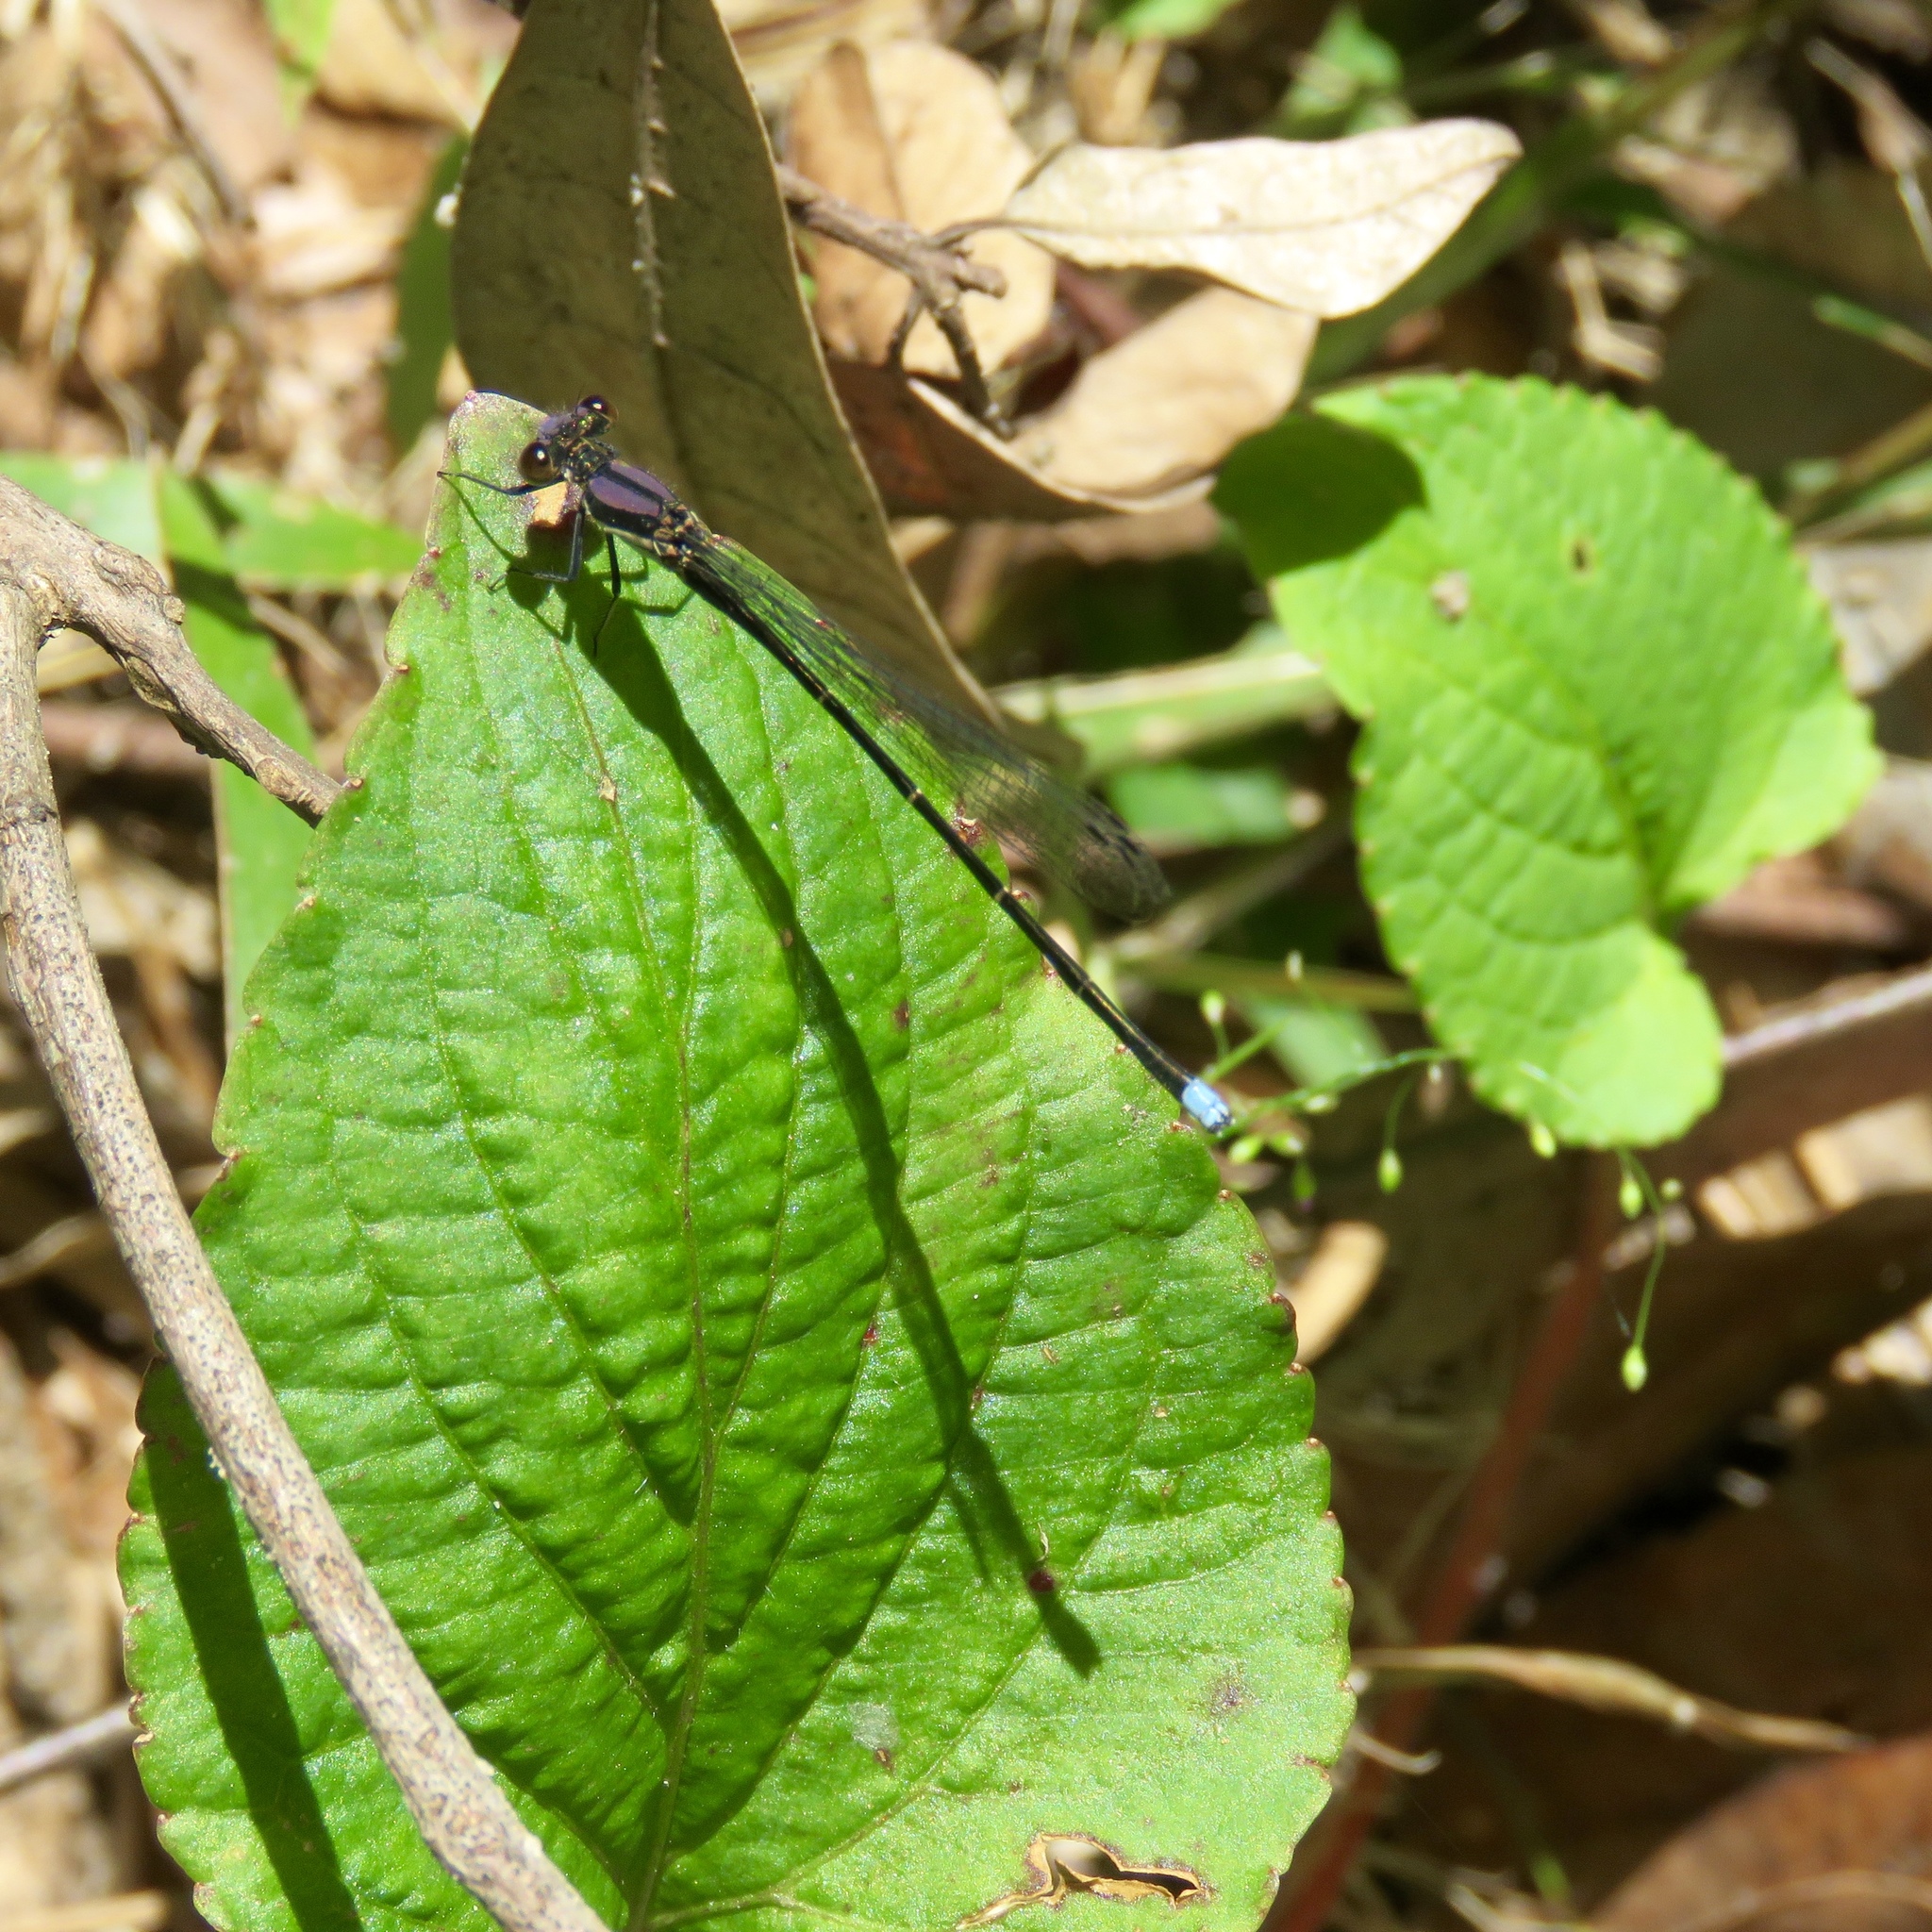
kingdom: Animalia
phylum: Arthropoda
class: Insecta
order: Odonata
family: Coenagrionidae
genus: Argia
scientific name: Argia tibialis
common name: Blue-tipped dancer
